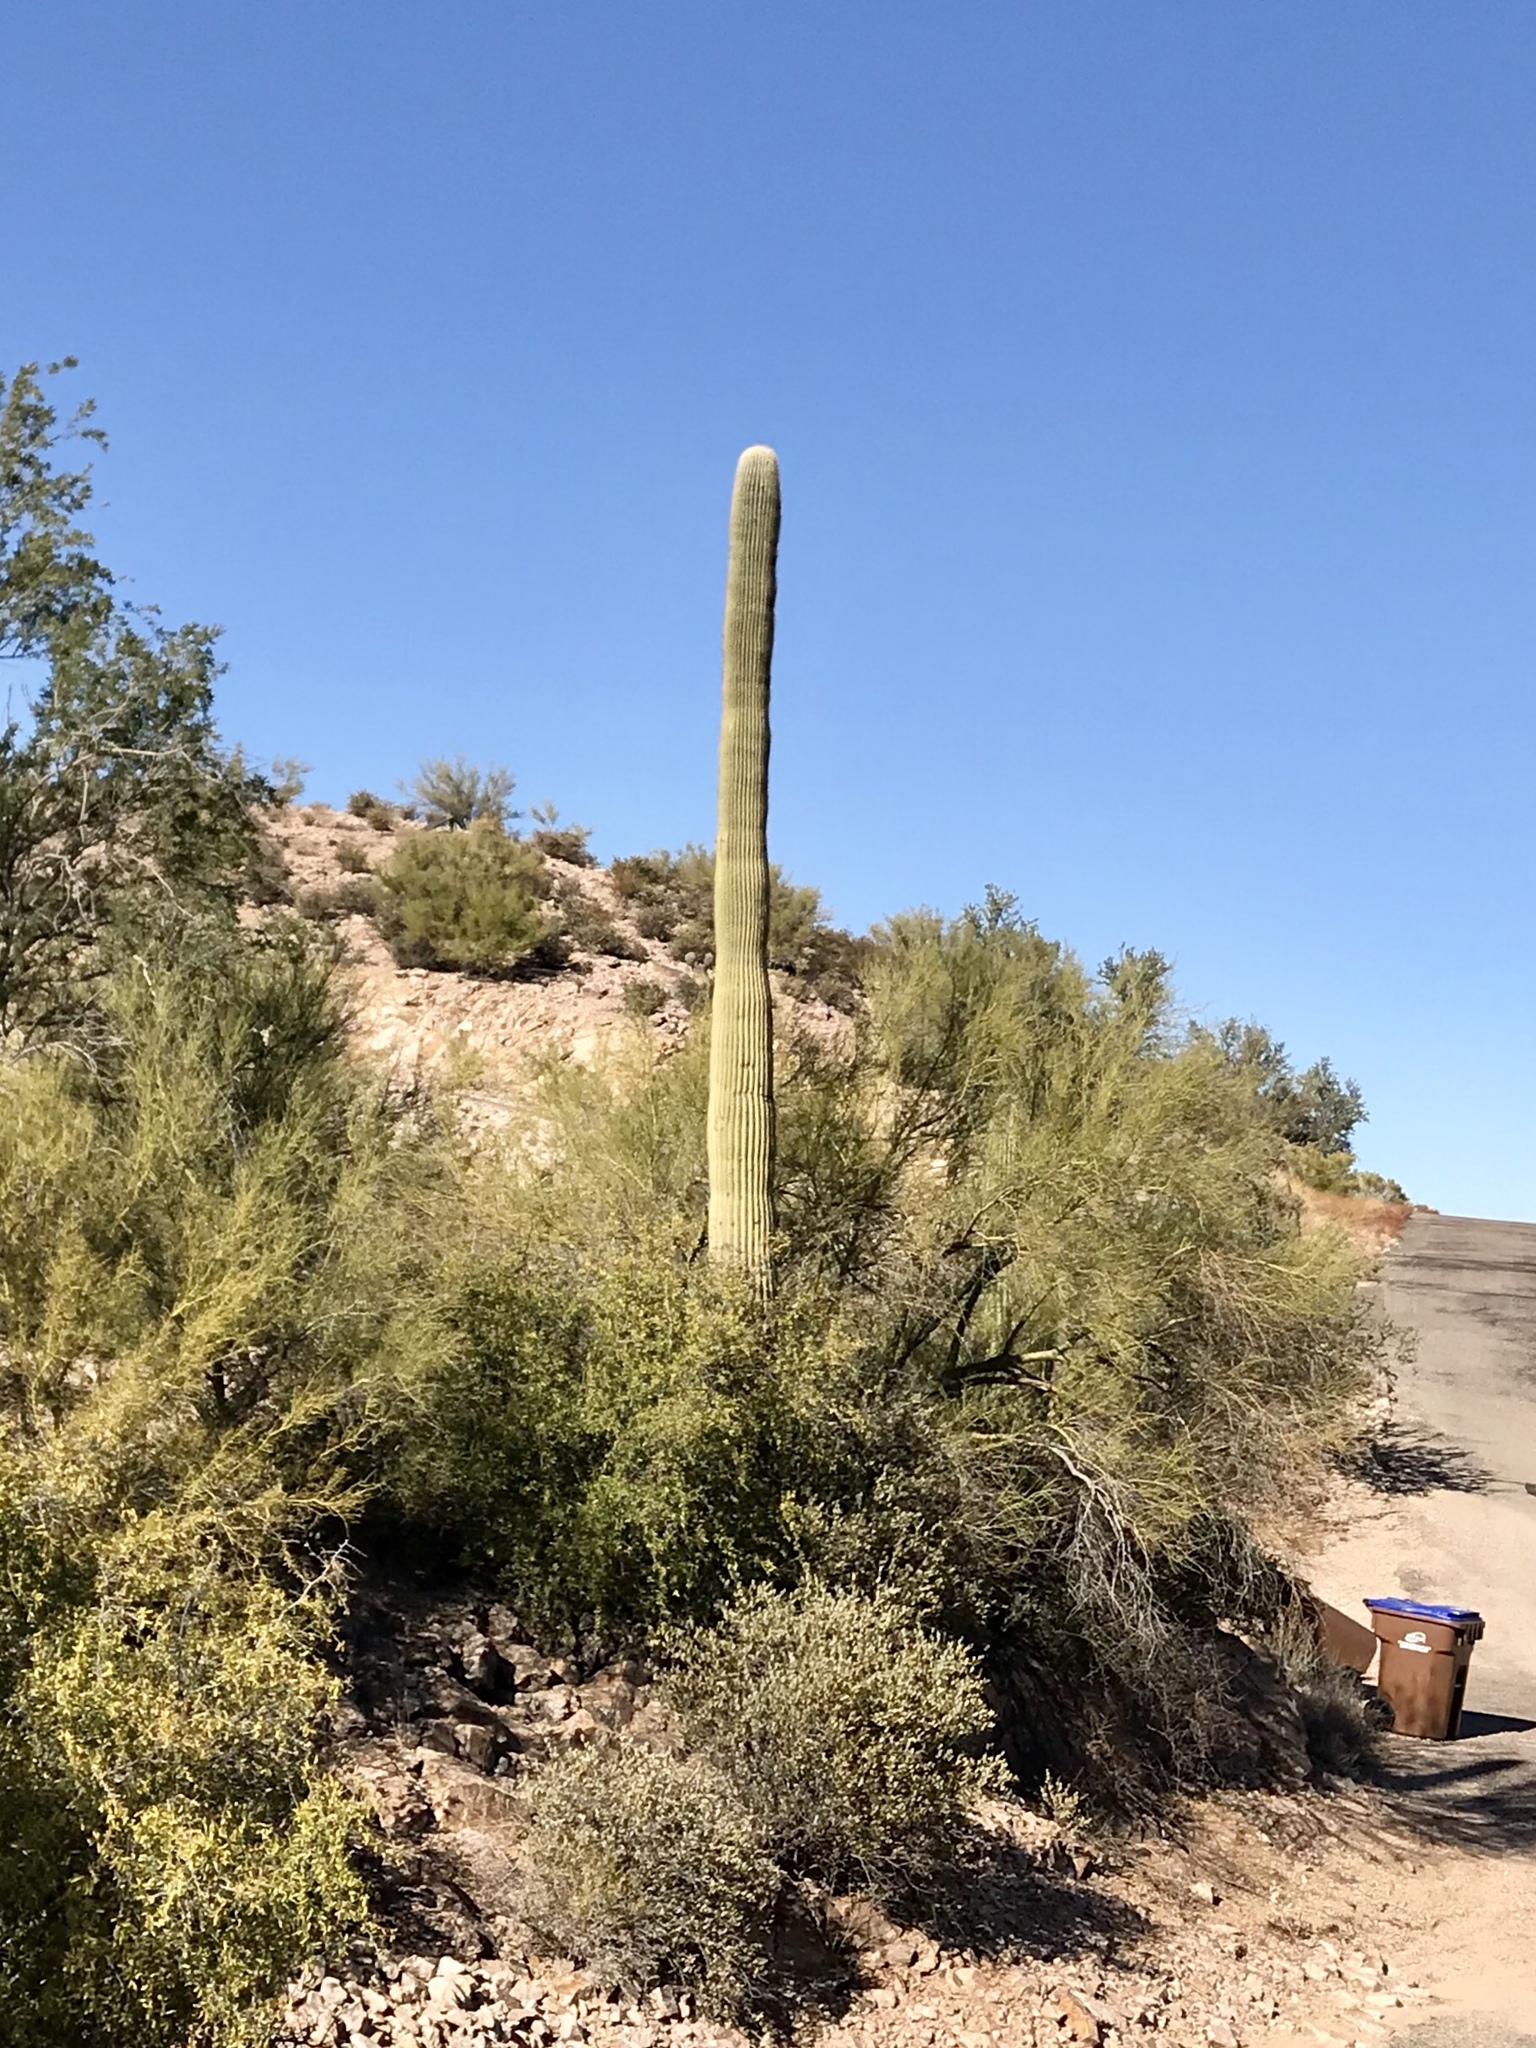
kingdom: Plantae
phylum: Tracheophyta
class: Magnoliopsida
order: Caryophyllales
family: Cactaceae
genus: Carnegiea
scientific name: Carnegiea gigantea
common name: Saguaro
